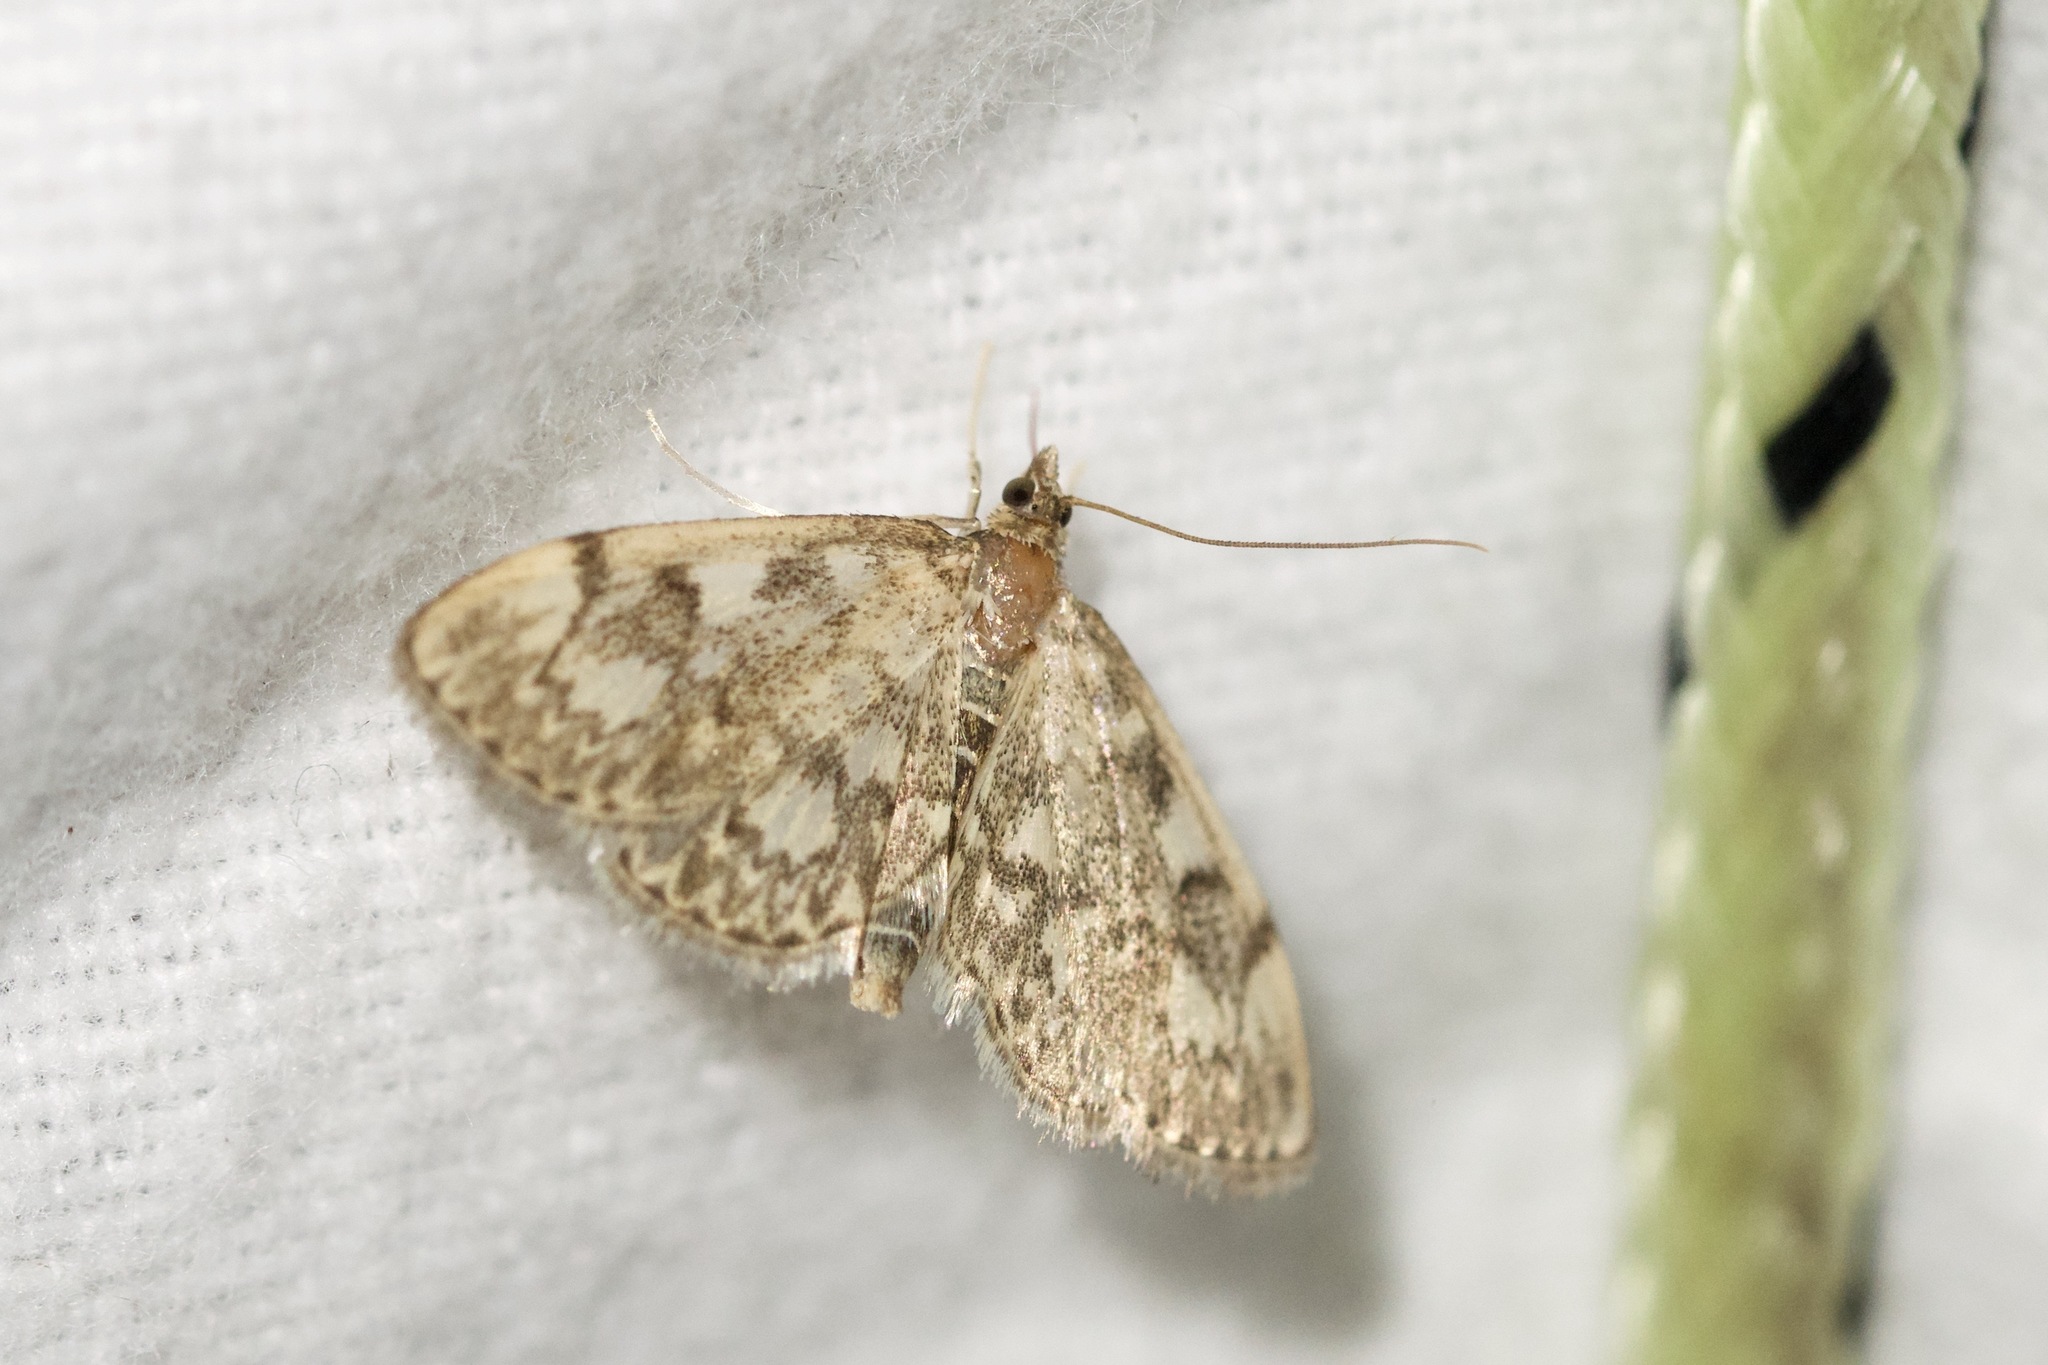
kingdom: Animalia
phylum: Arthropoda
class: Insecta
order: Lepidoptera
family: Crambidae
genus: Anania
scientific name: Anania tertialis
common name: Crowned phylctaenia moth
